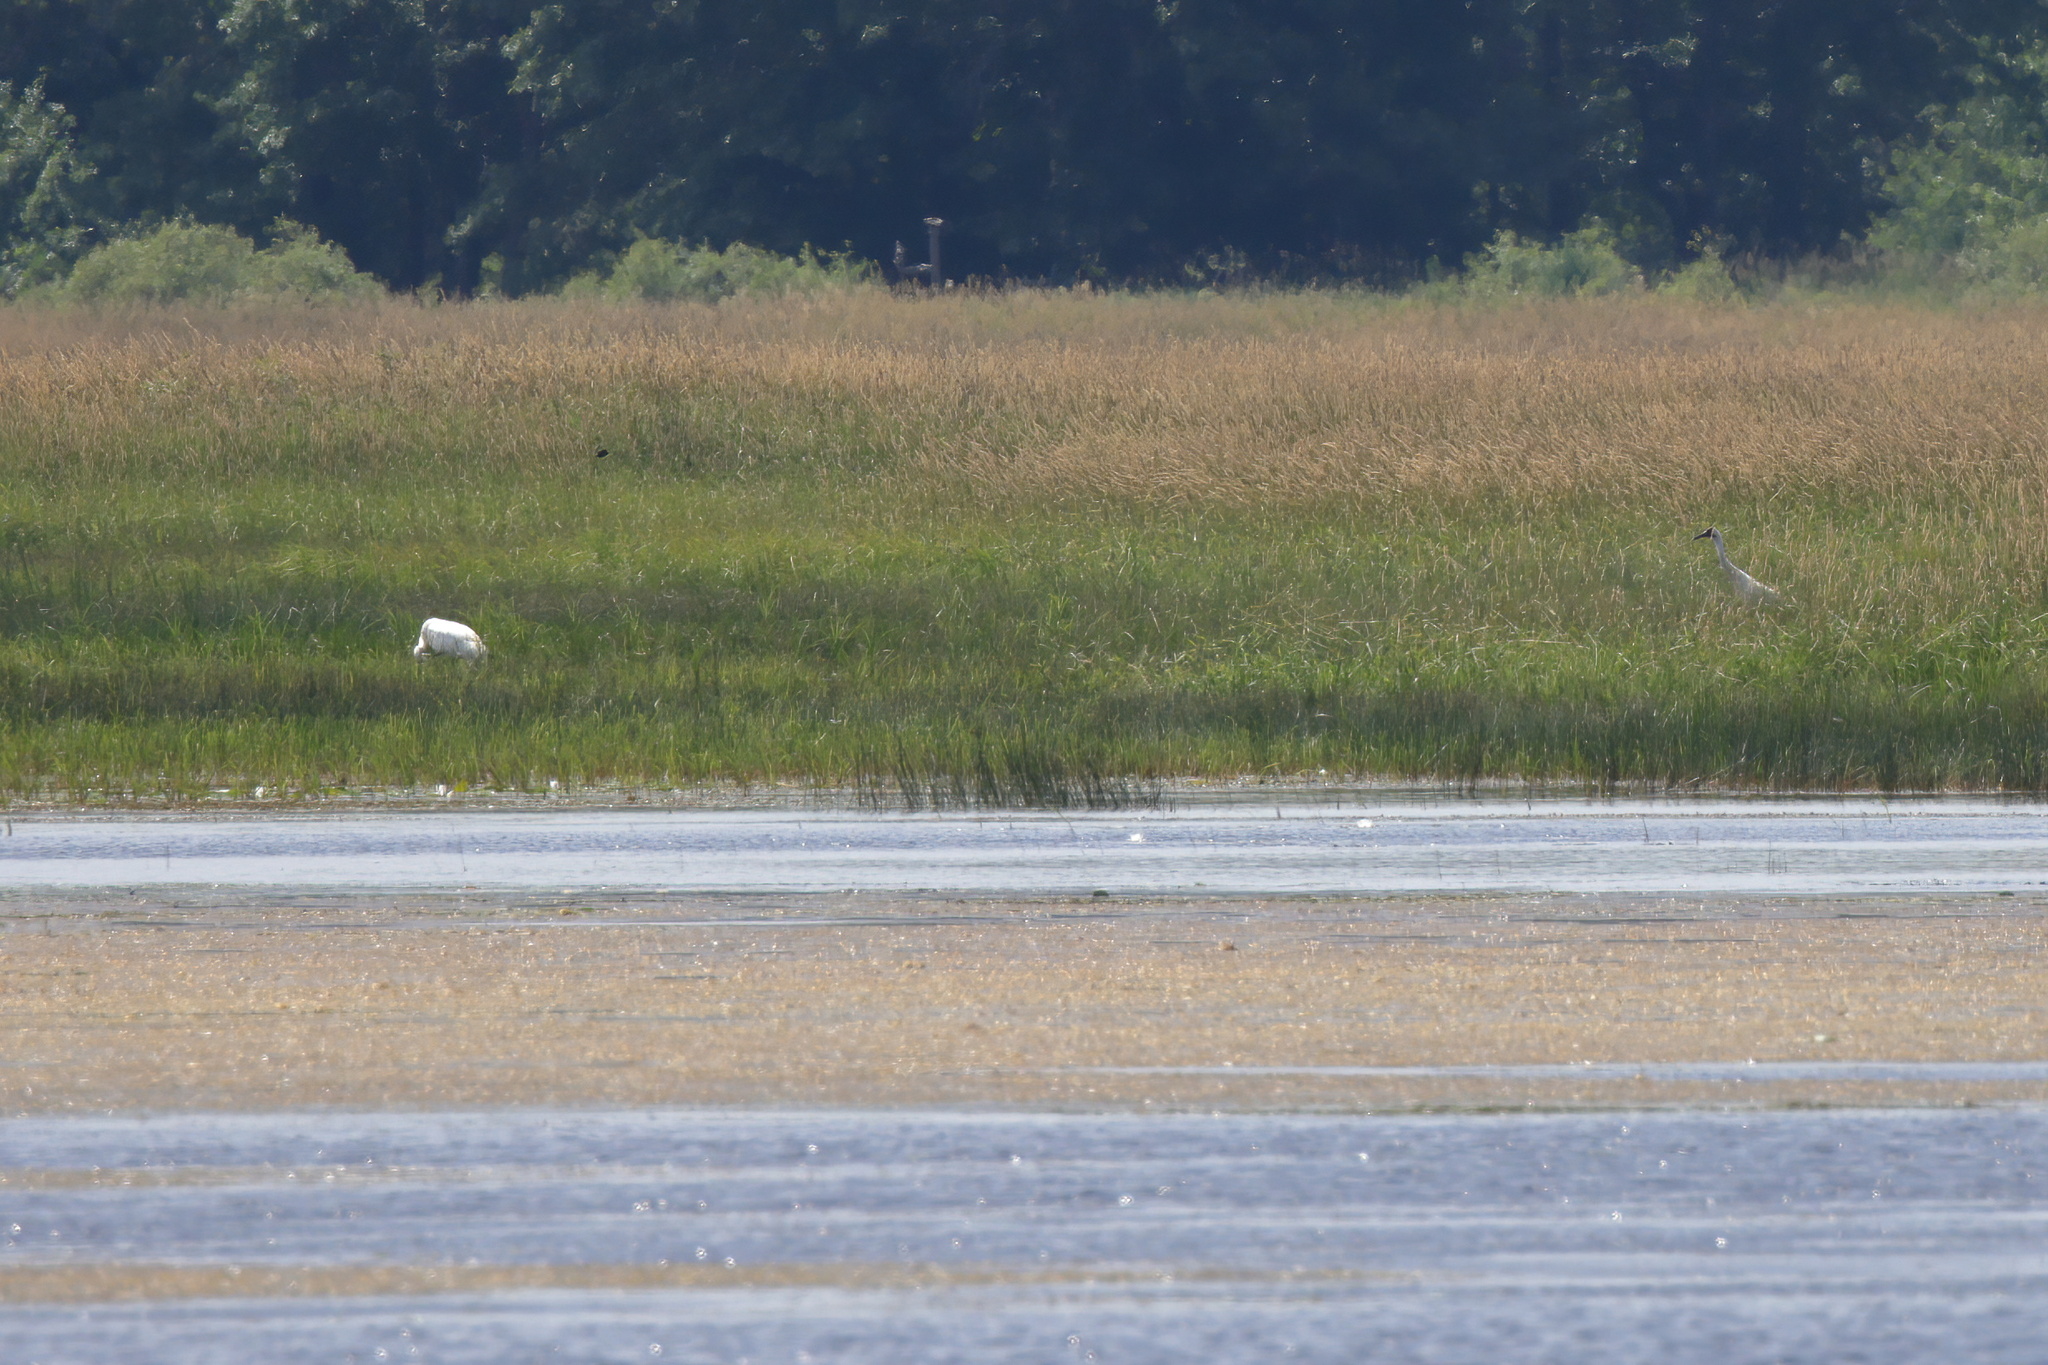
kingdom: Animalia
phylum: Chordata
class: Aves
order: Gruiformes
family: Gruidae
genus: Grus
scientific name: Grus americana
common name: Whooping crane
